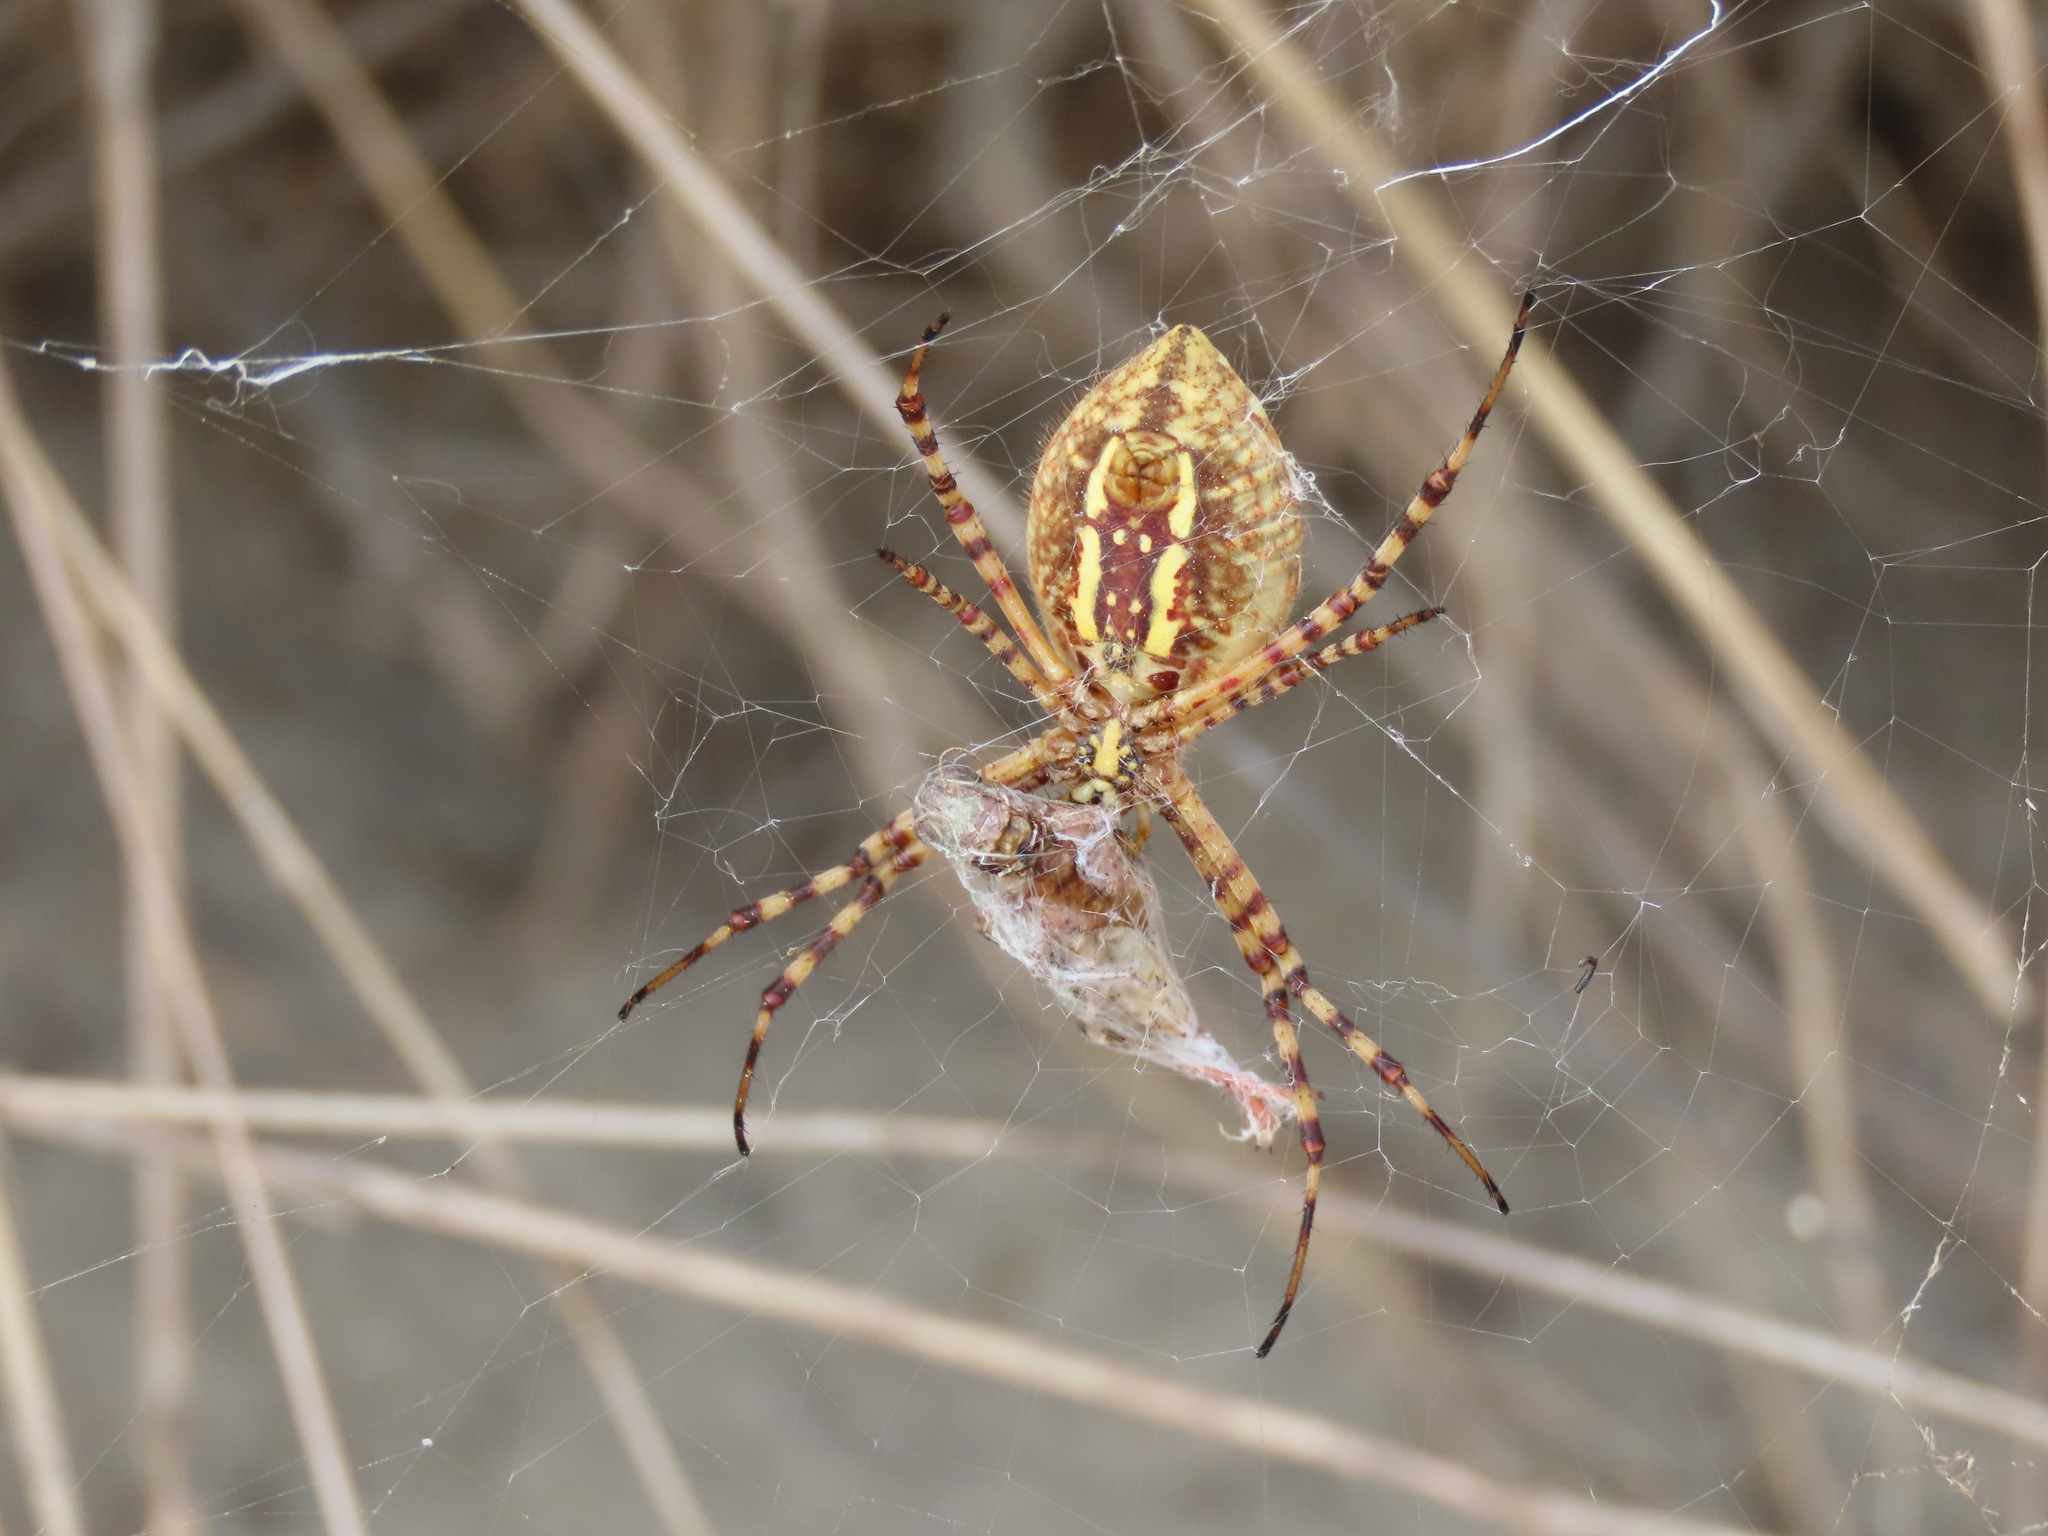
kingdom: Animalia
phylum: Arthropoda
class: Arachnida
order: Araneae
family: Araneidae
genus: Argiope
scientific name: Argiope trifasciata
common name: Banded garden spider
